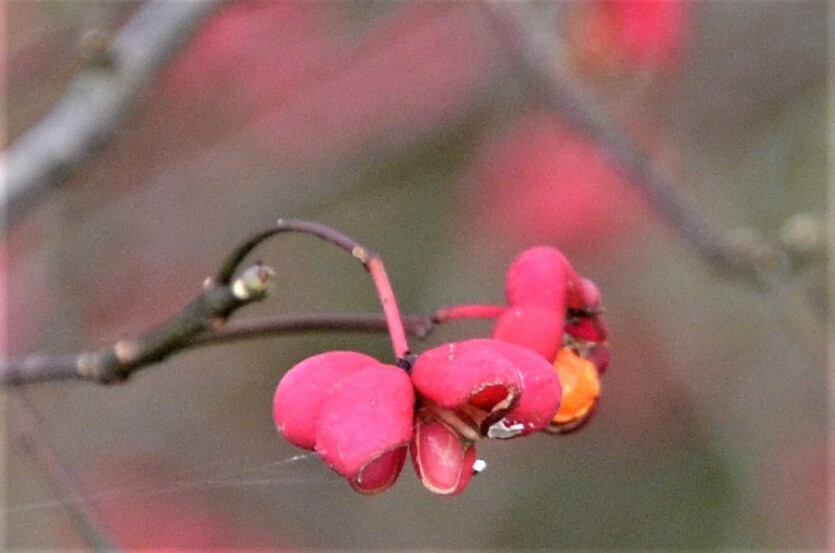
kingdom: Plantae
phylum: Tracheophyta
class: Magnoliopsida
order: Celastrales
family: Celastraceae
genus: Euonymus
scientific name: Euonymus europaeus
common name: Spindle
